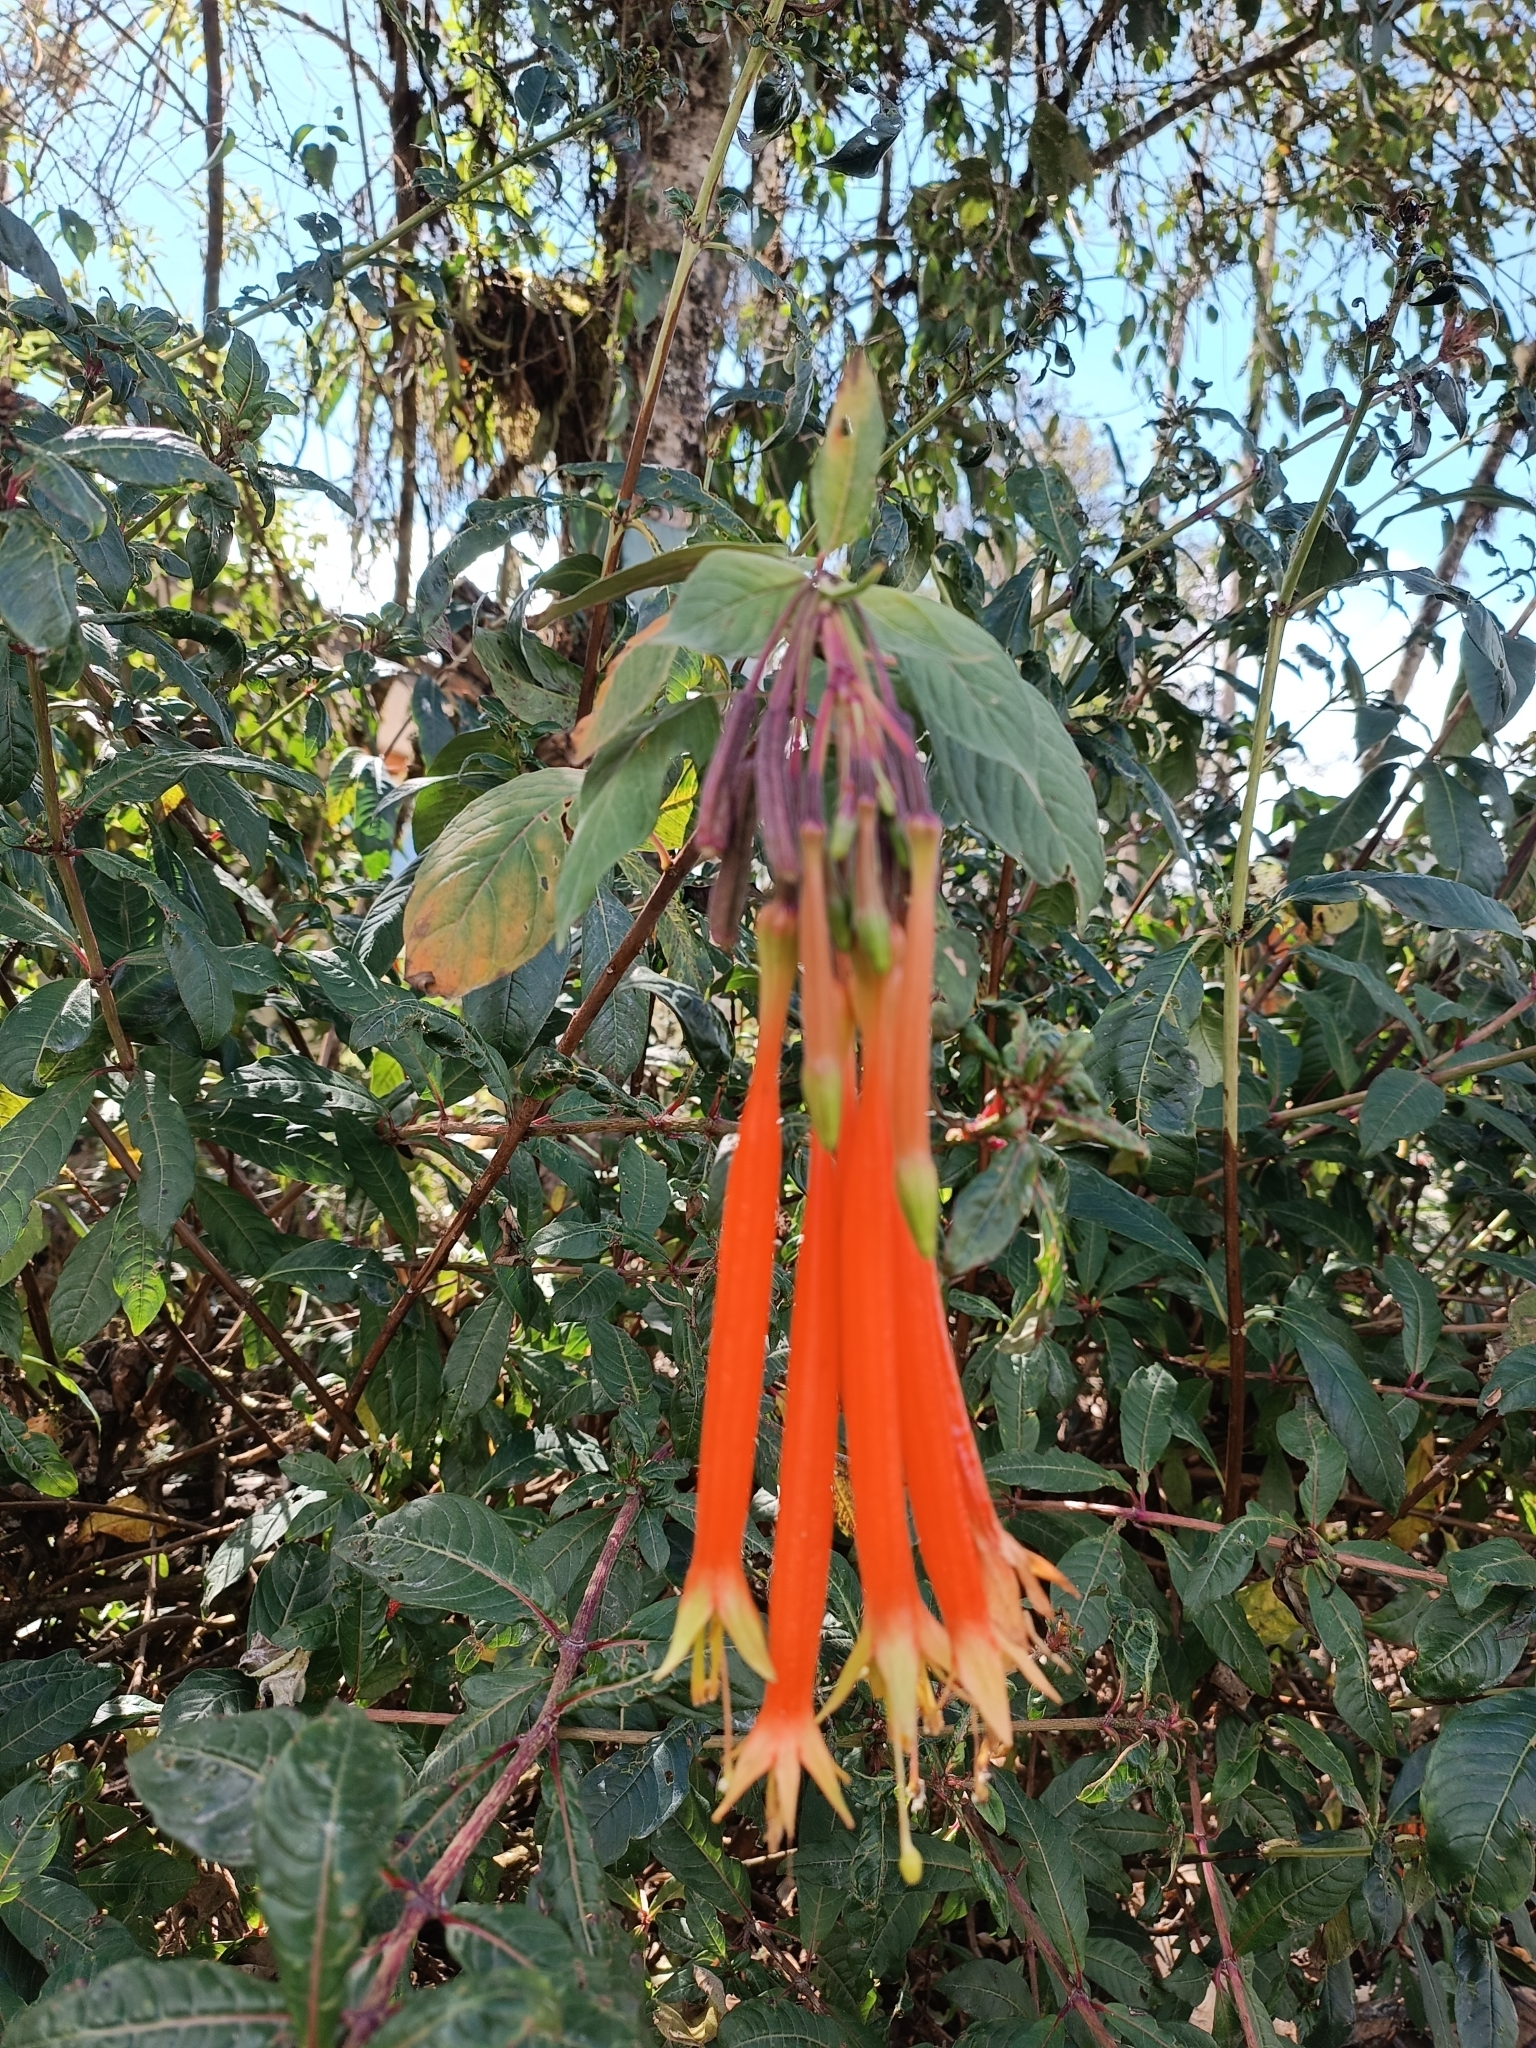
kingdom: Plantae
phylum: Tracheophyta
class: Magnoliopsida
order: Myrtales
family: Onagraceae
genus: Fuchsia
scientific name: Fuchsia inflata
